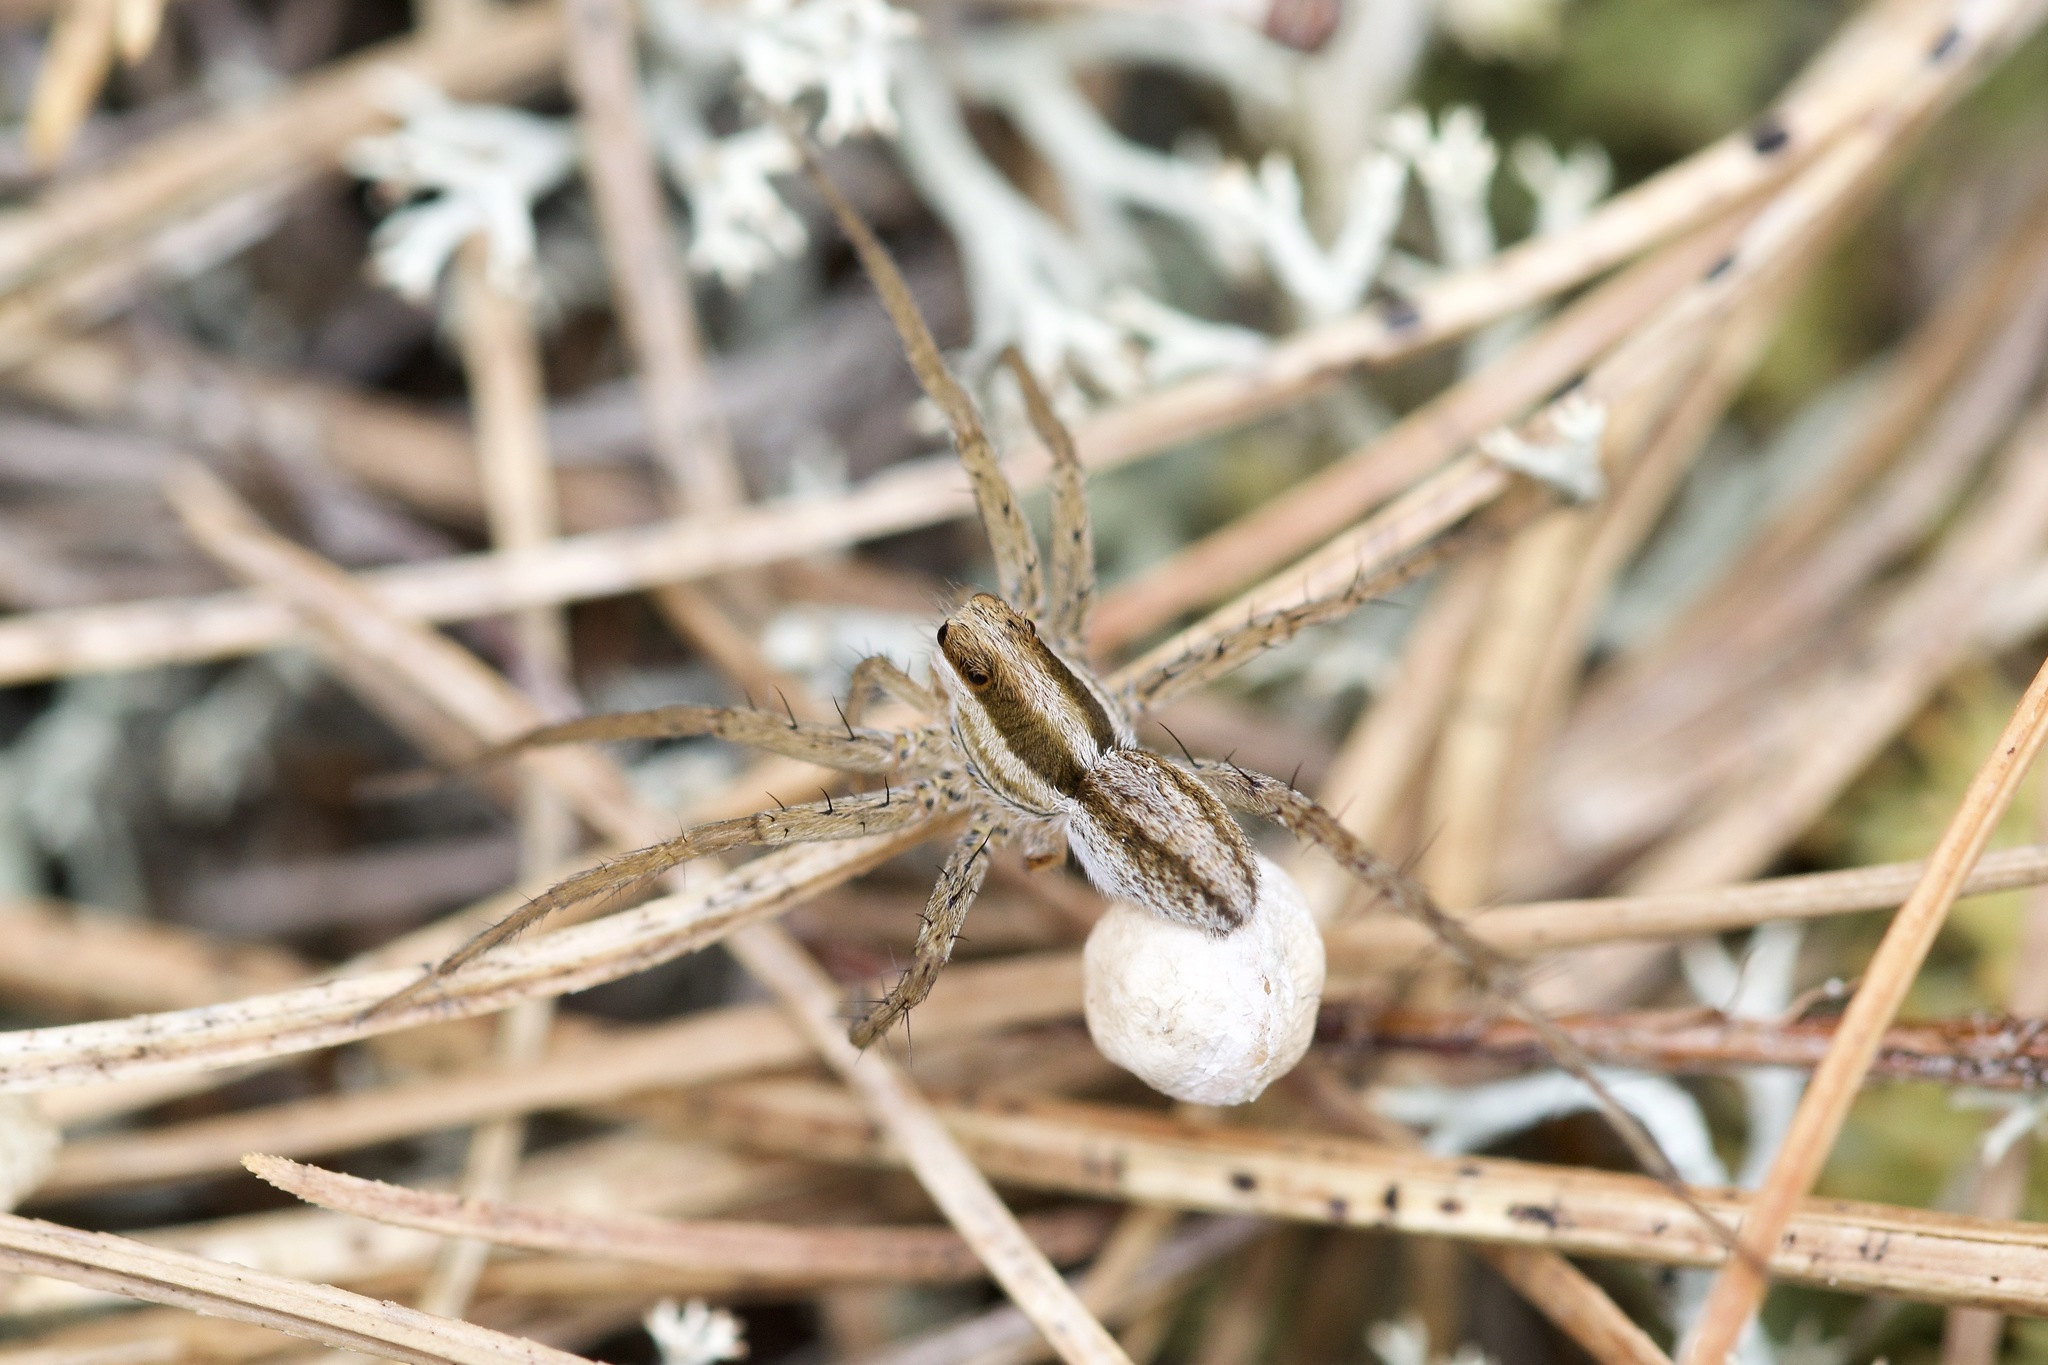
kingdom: Animalia
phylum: Arthropoda
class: Arachnida
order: Araneae
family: Lycosidae
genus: Pardosa
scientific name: Pardosa distincta
